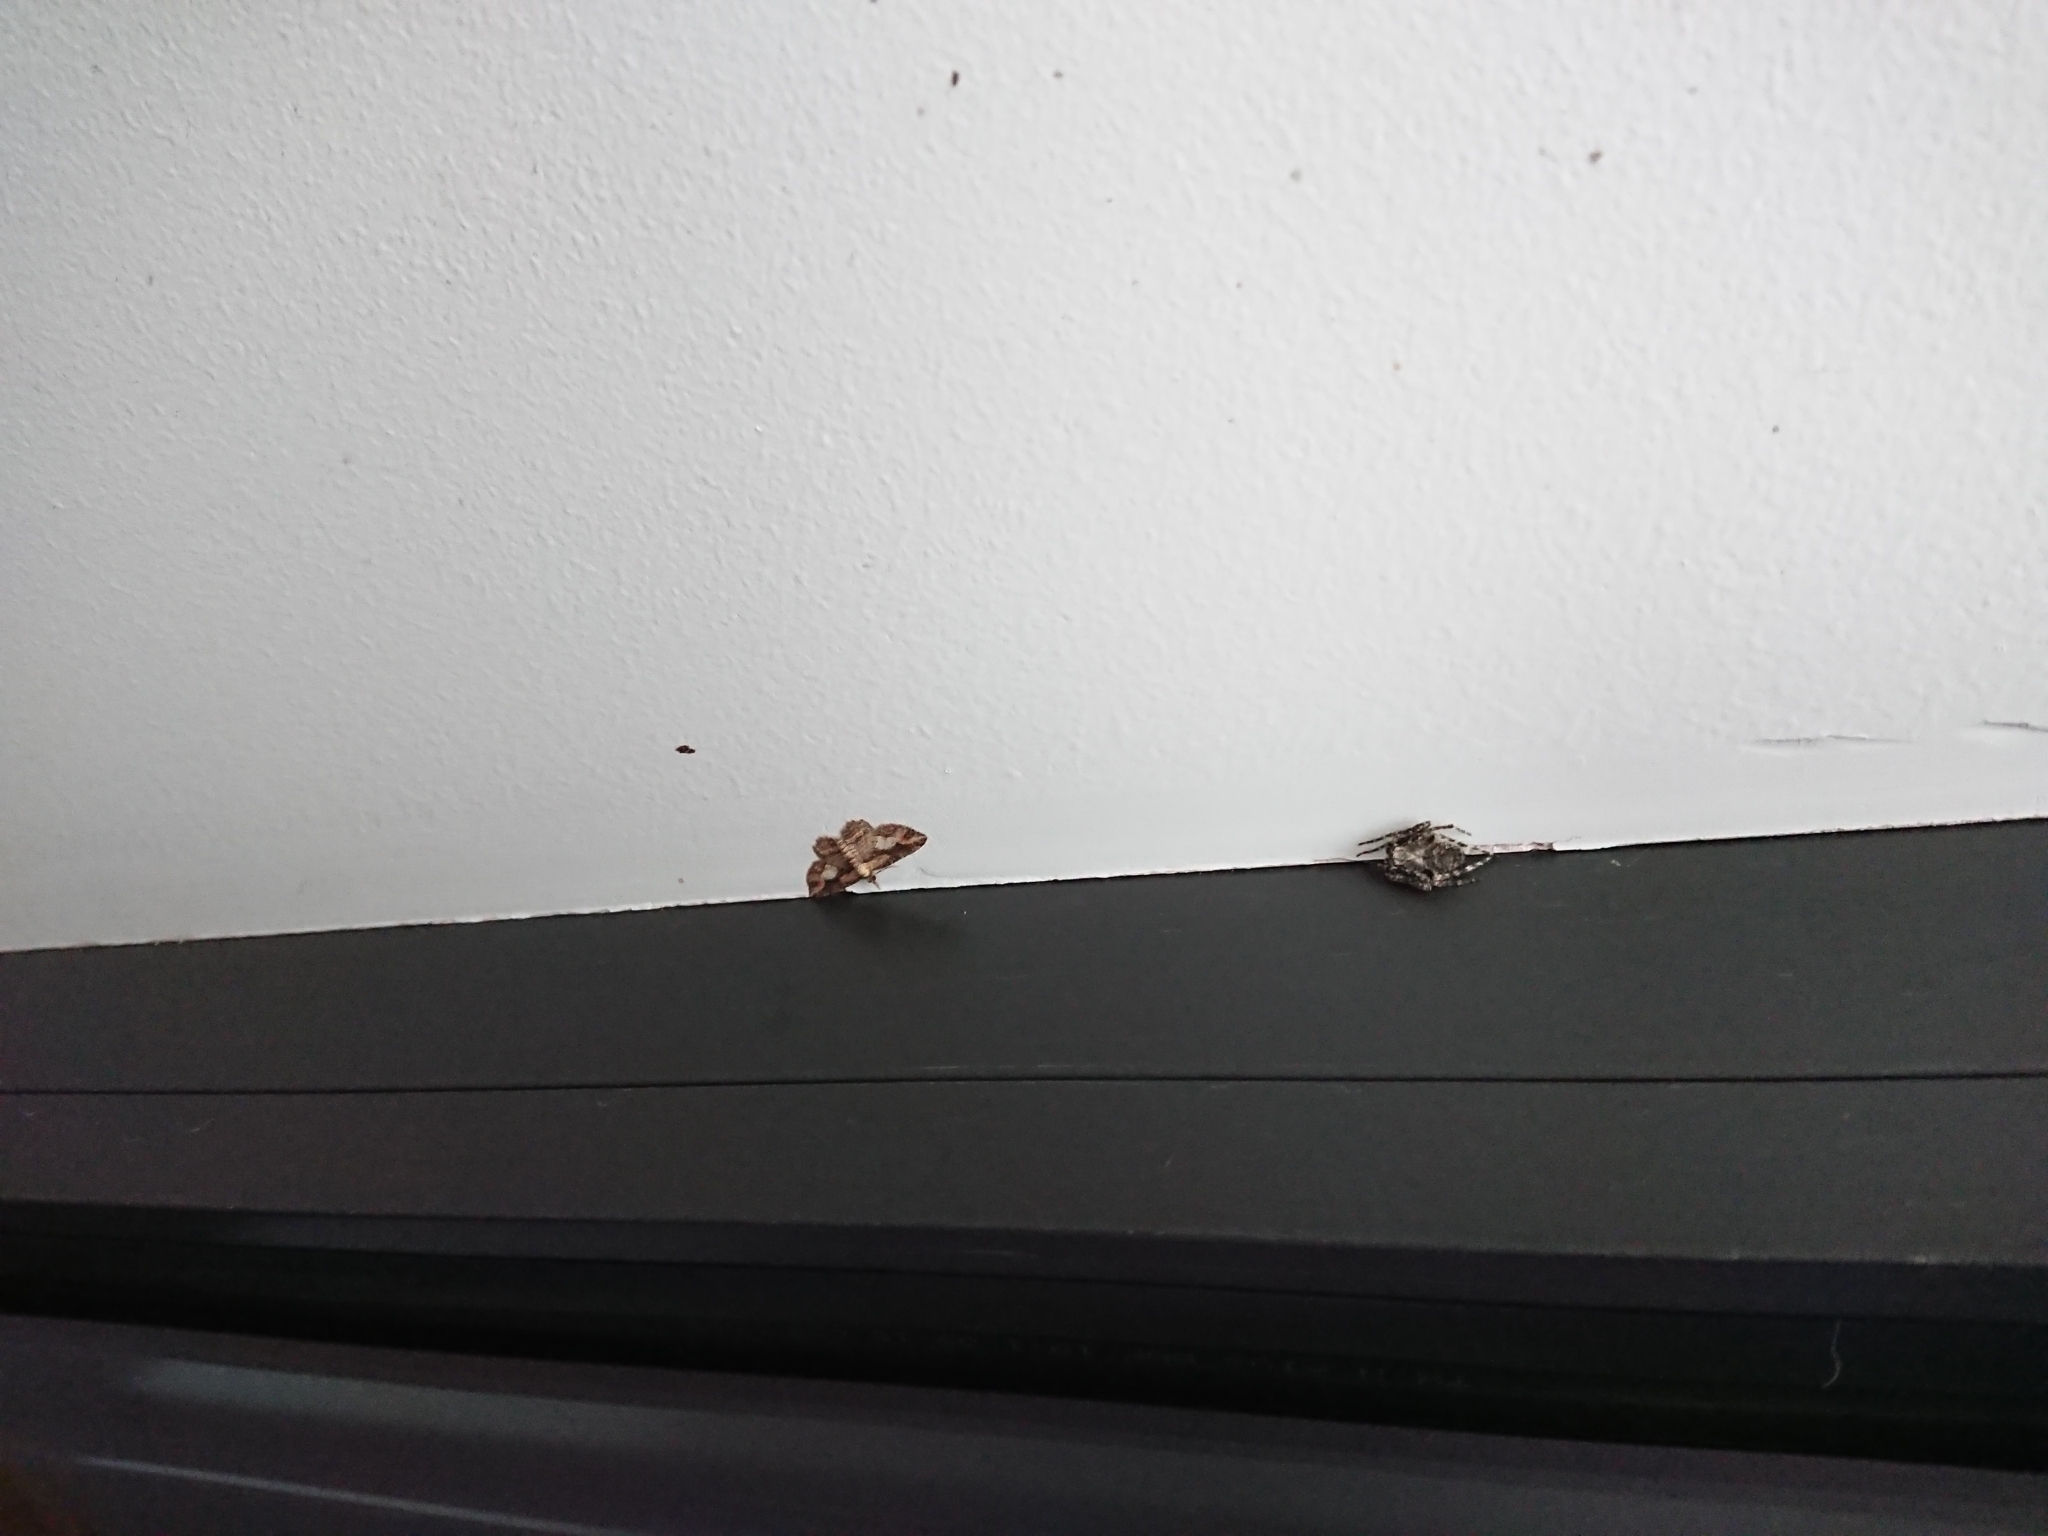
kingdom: Animalia
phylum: Arthropoda
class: Insecta
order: Lepidoptera
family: Geometridae
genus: Chloroclystis
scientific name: Chloroclystis filata
